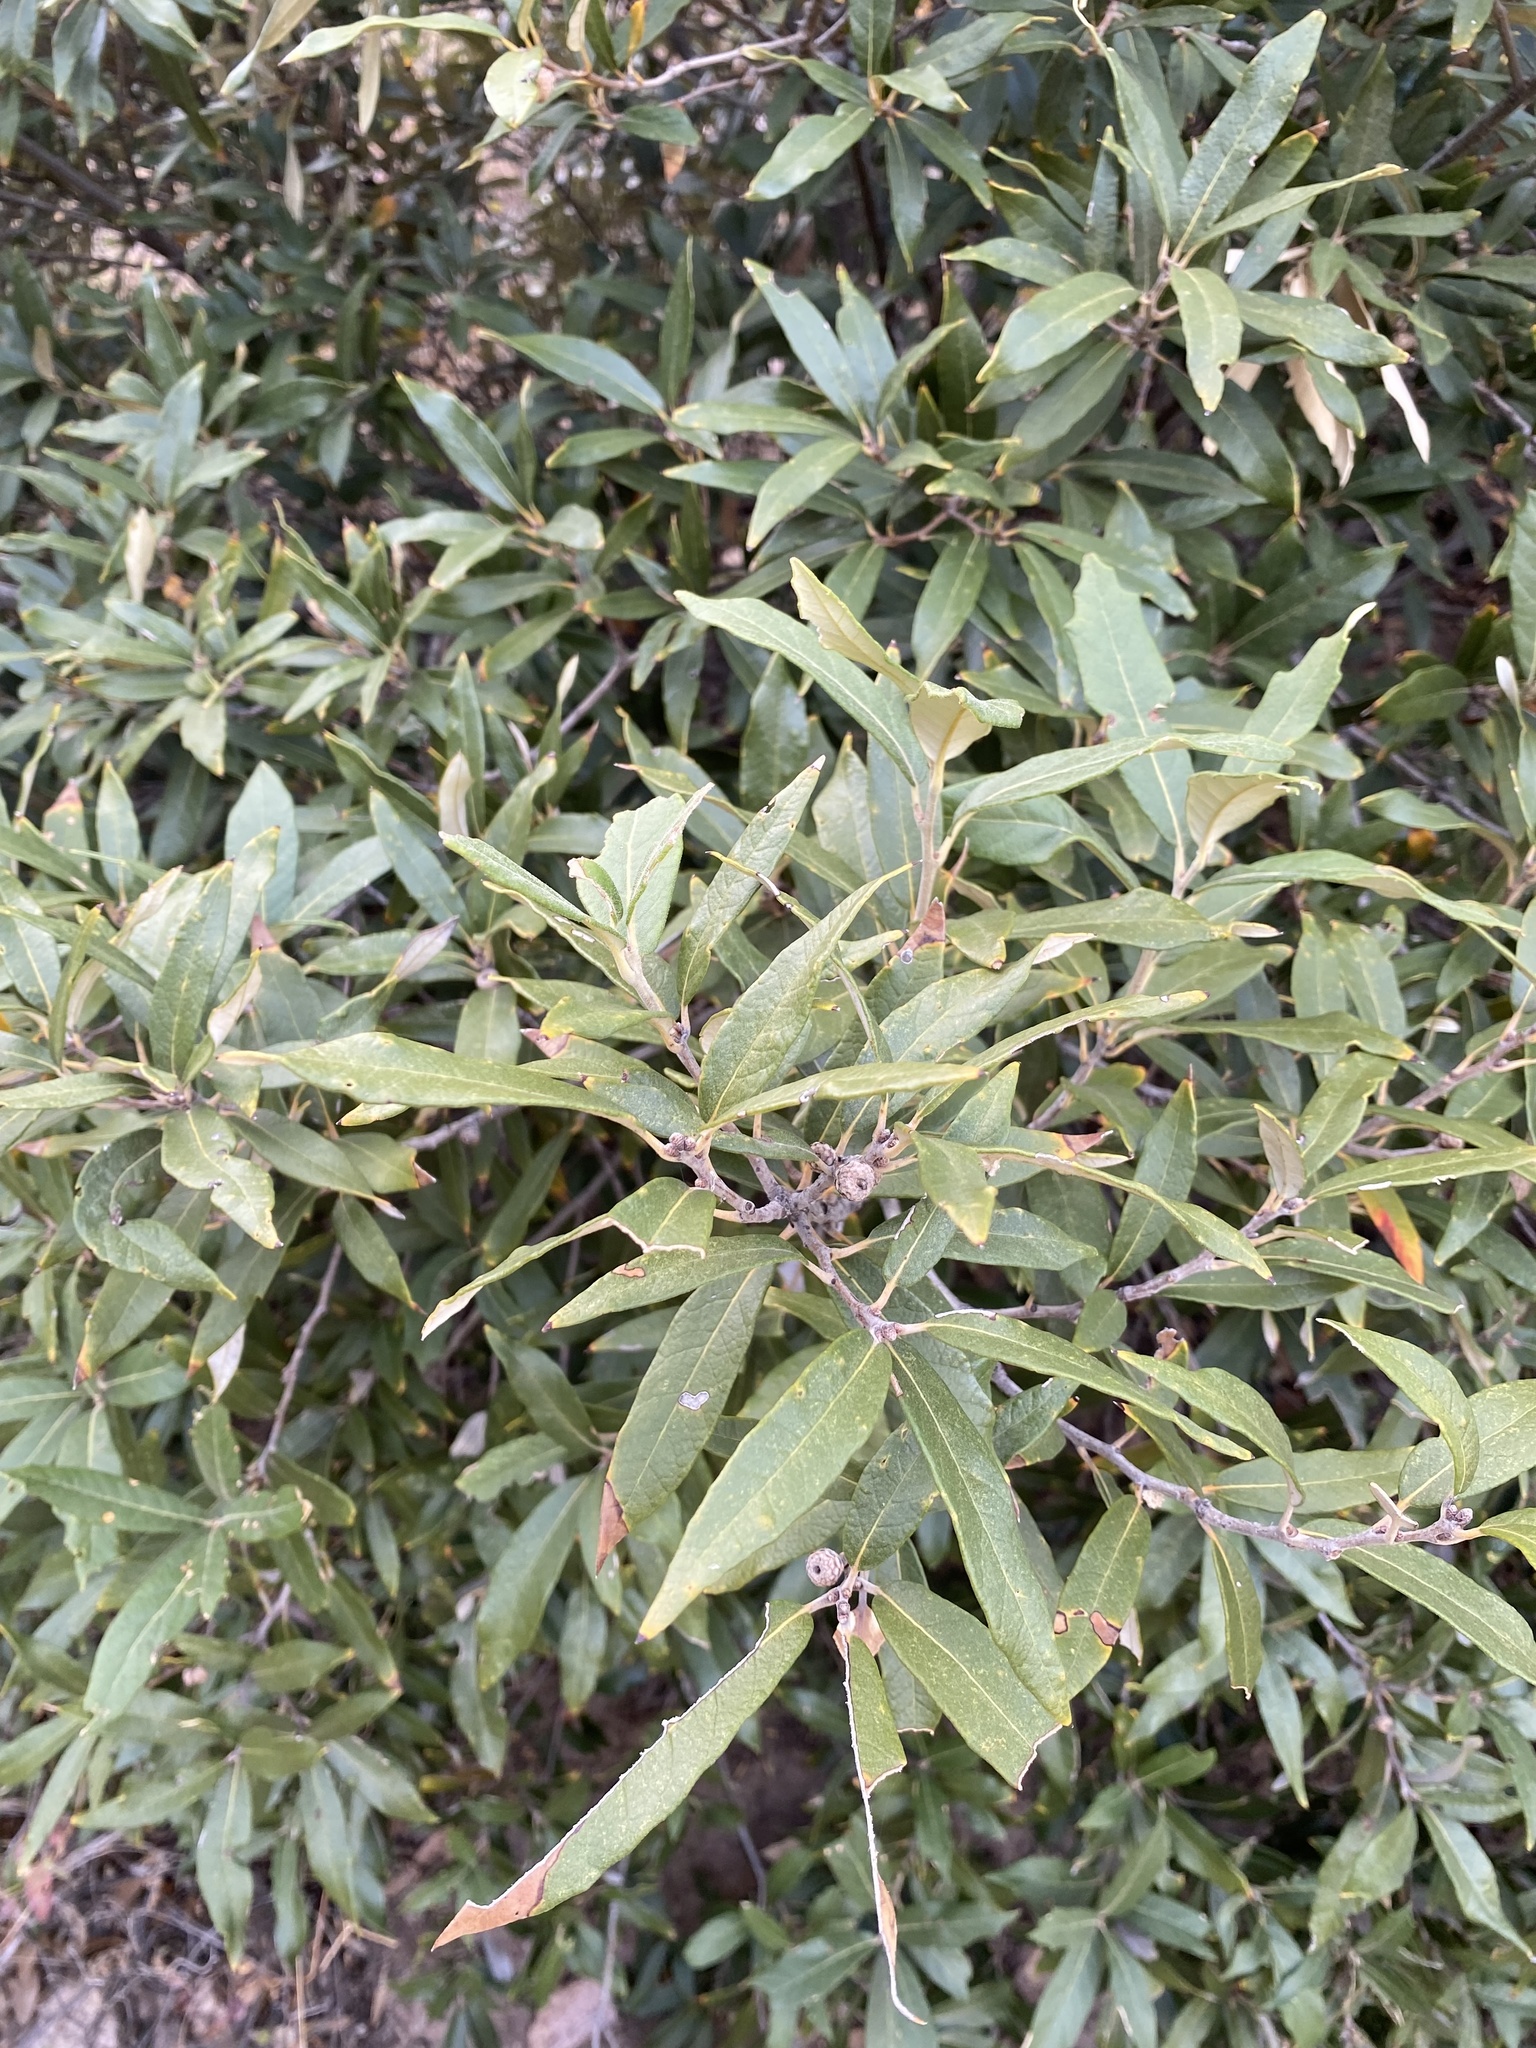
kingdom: Plantae
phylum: Tracheophyta
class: Magnoliopsida
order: Fagales
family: Fagaceae
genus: Quercus
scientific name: Quercus hypoleucoides
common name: Silverleaf oak
